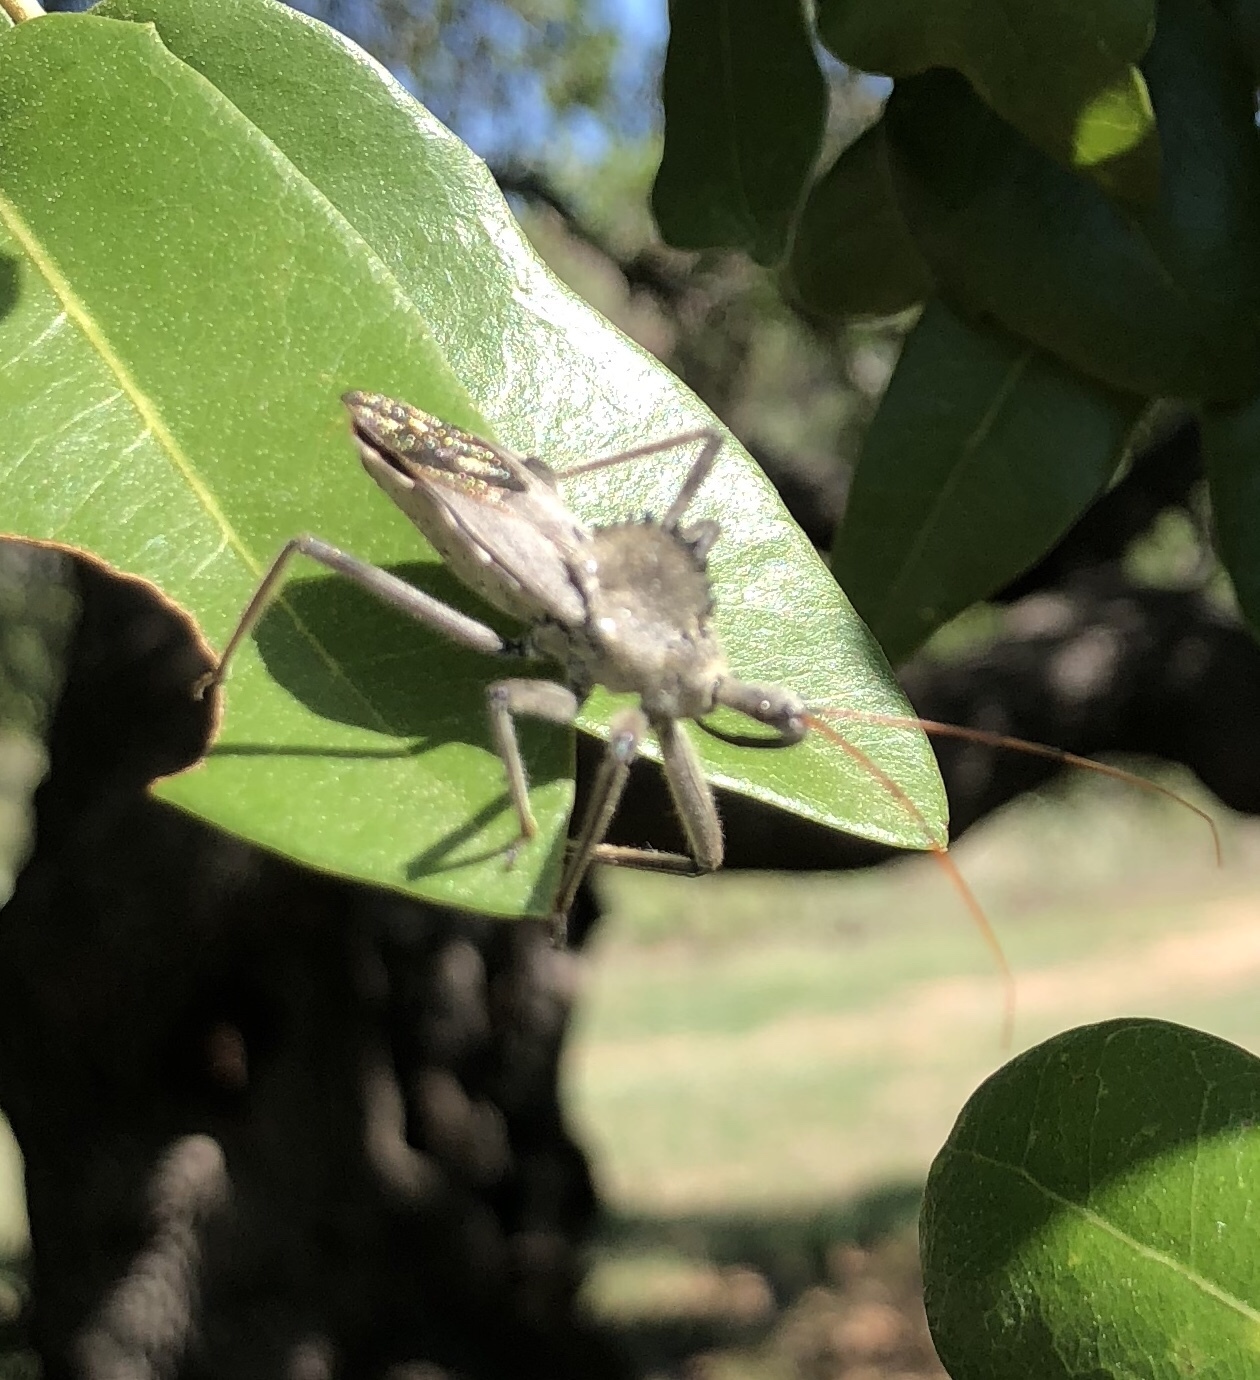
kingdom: Animalia
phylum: Arthropoda
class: Insecta
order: Hemiptera
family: Reduviidae
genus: Arilus
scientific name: Arilus cristatus
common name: North american wheel bug
